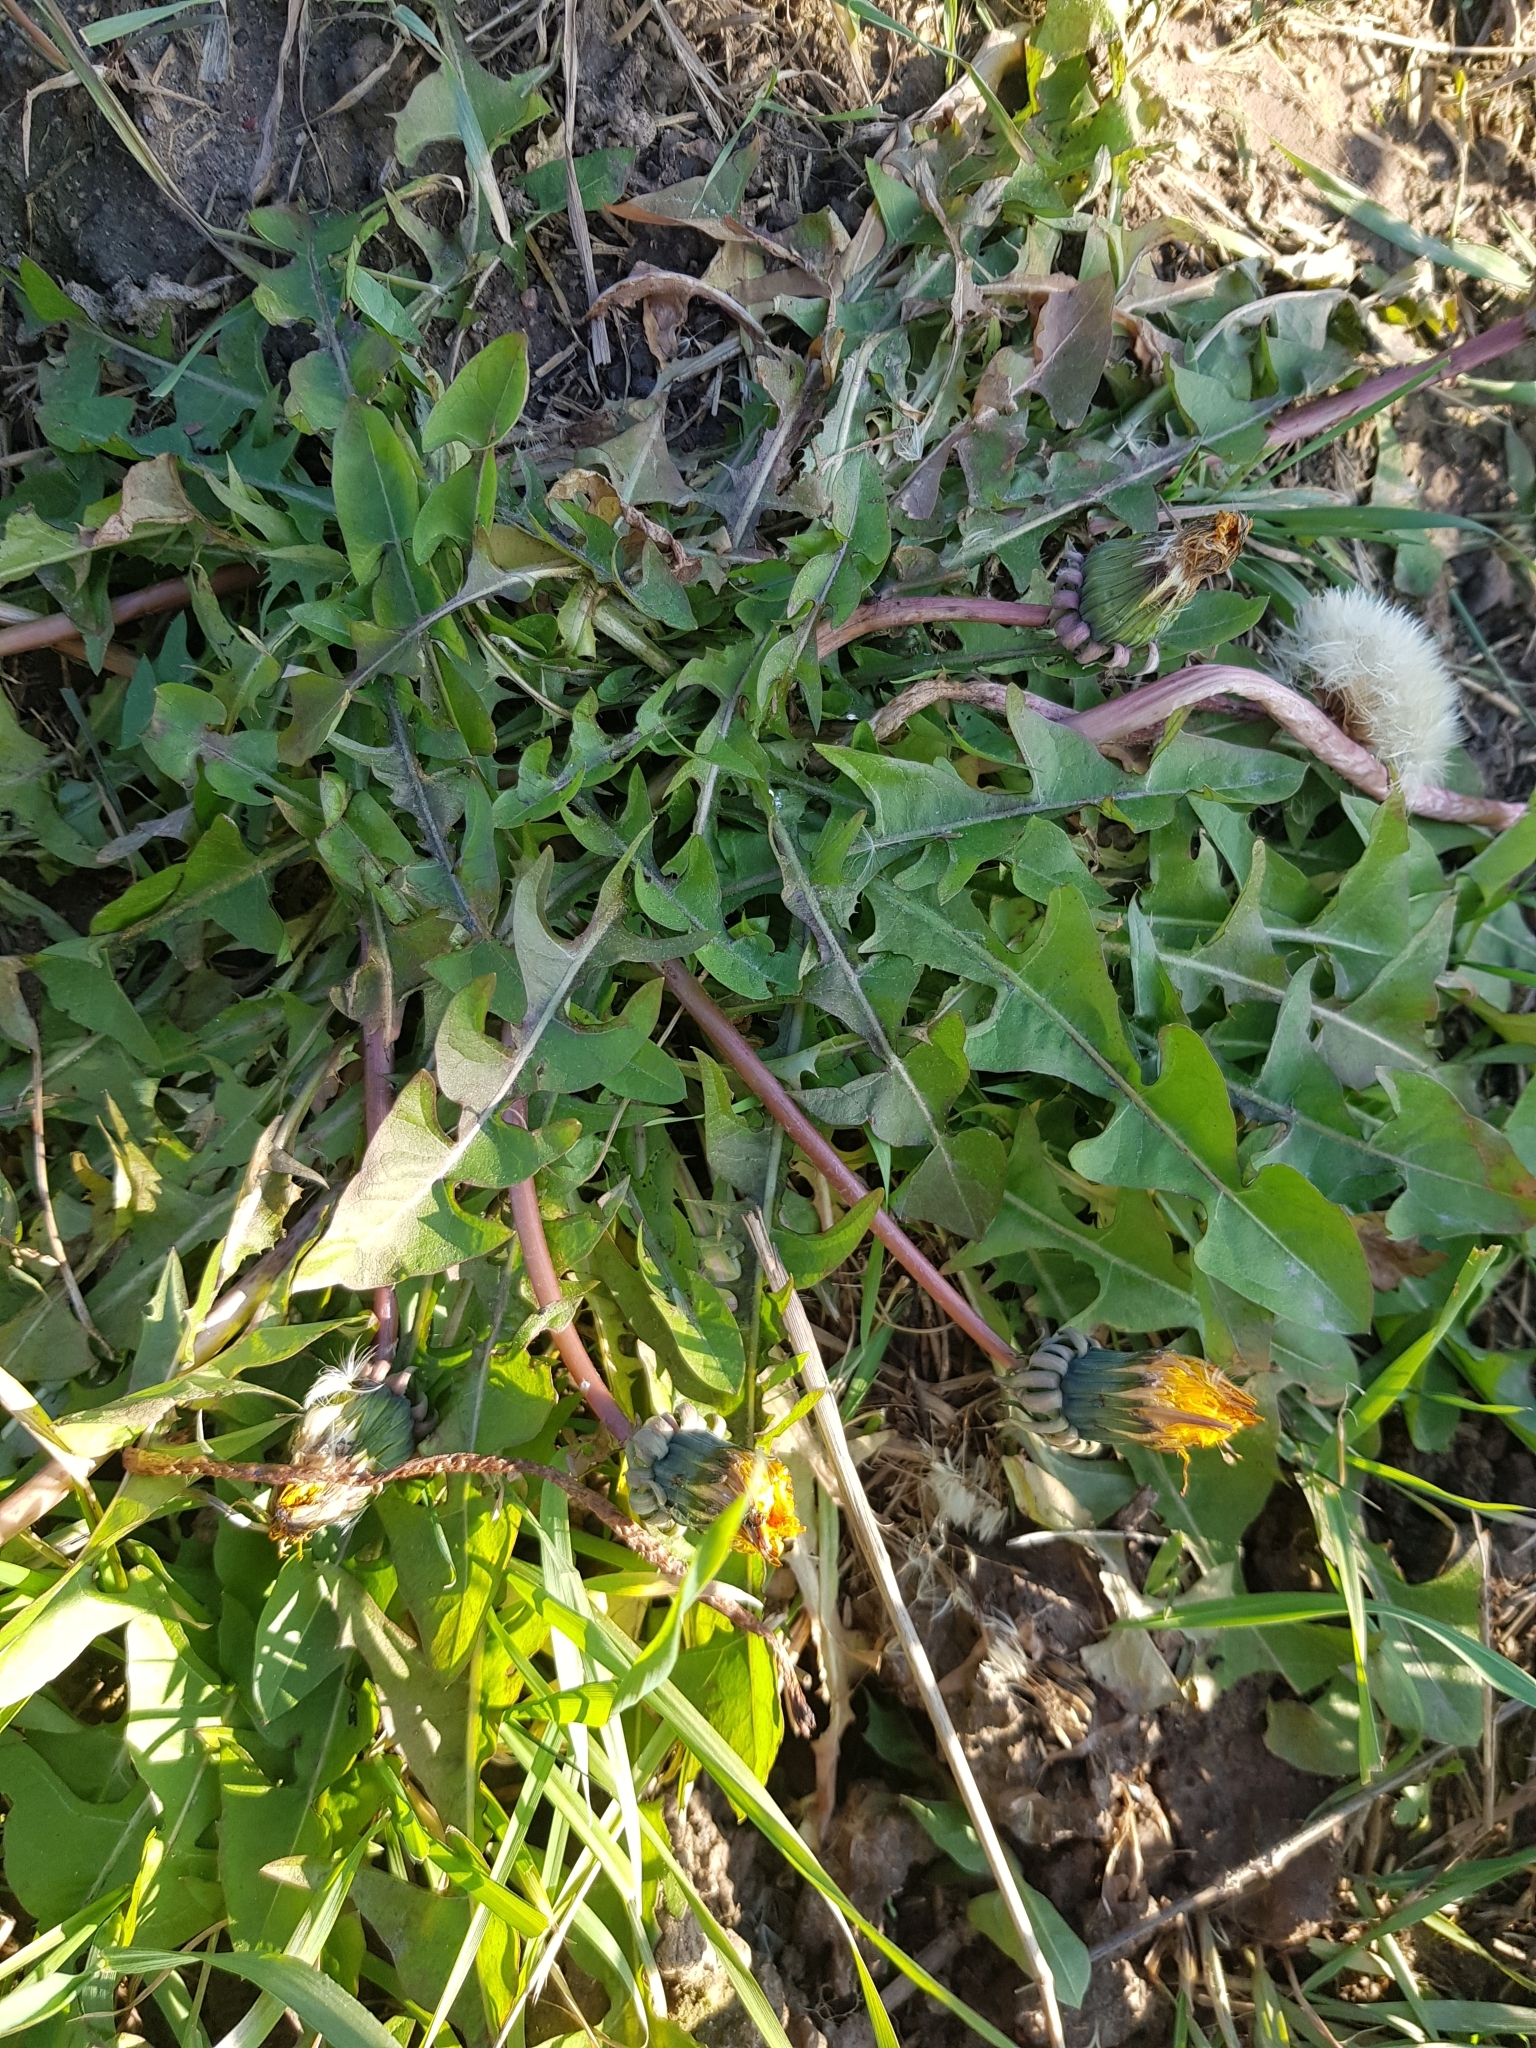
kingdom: Plantae
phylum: Tracheophyta
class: Magnoliopsida
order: Asterales
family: Asteraceae
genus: Taraxacum
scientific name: Taraxacum officinale
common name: Common dandelion
